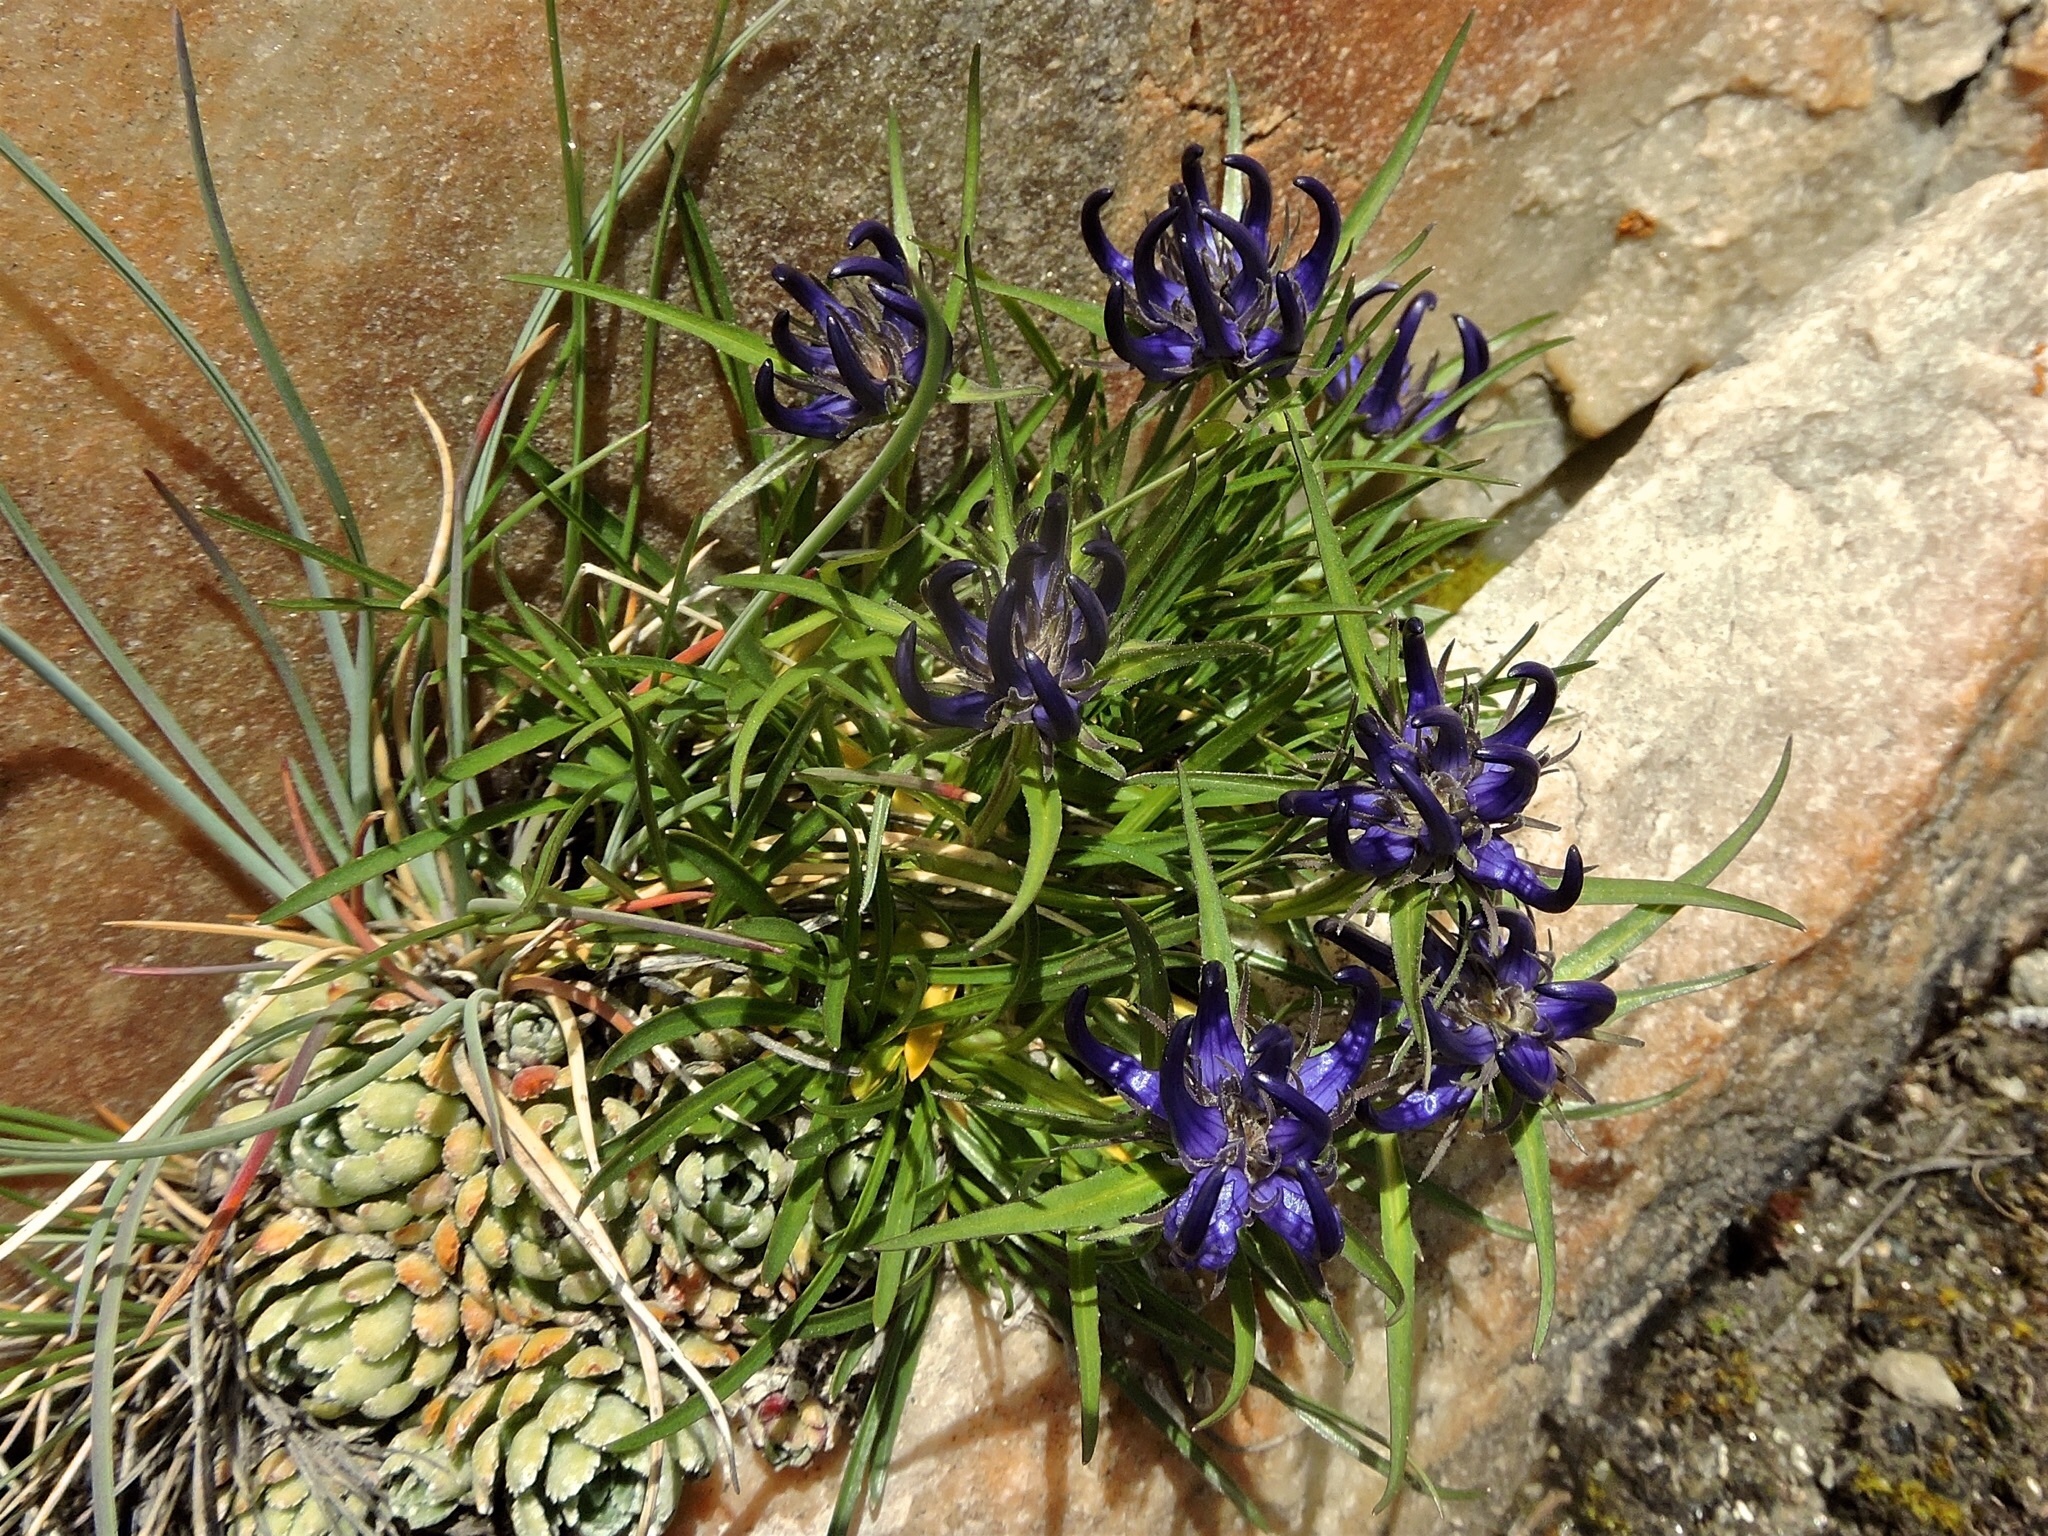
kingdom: Plantae
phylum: Tracheophyta
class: Magnoliopsida
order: Asterales
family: Campanulaceae
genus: Phyteuma
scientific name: Phyteuma humile
